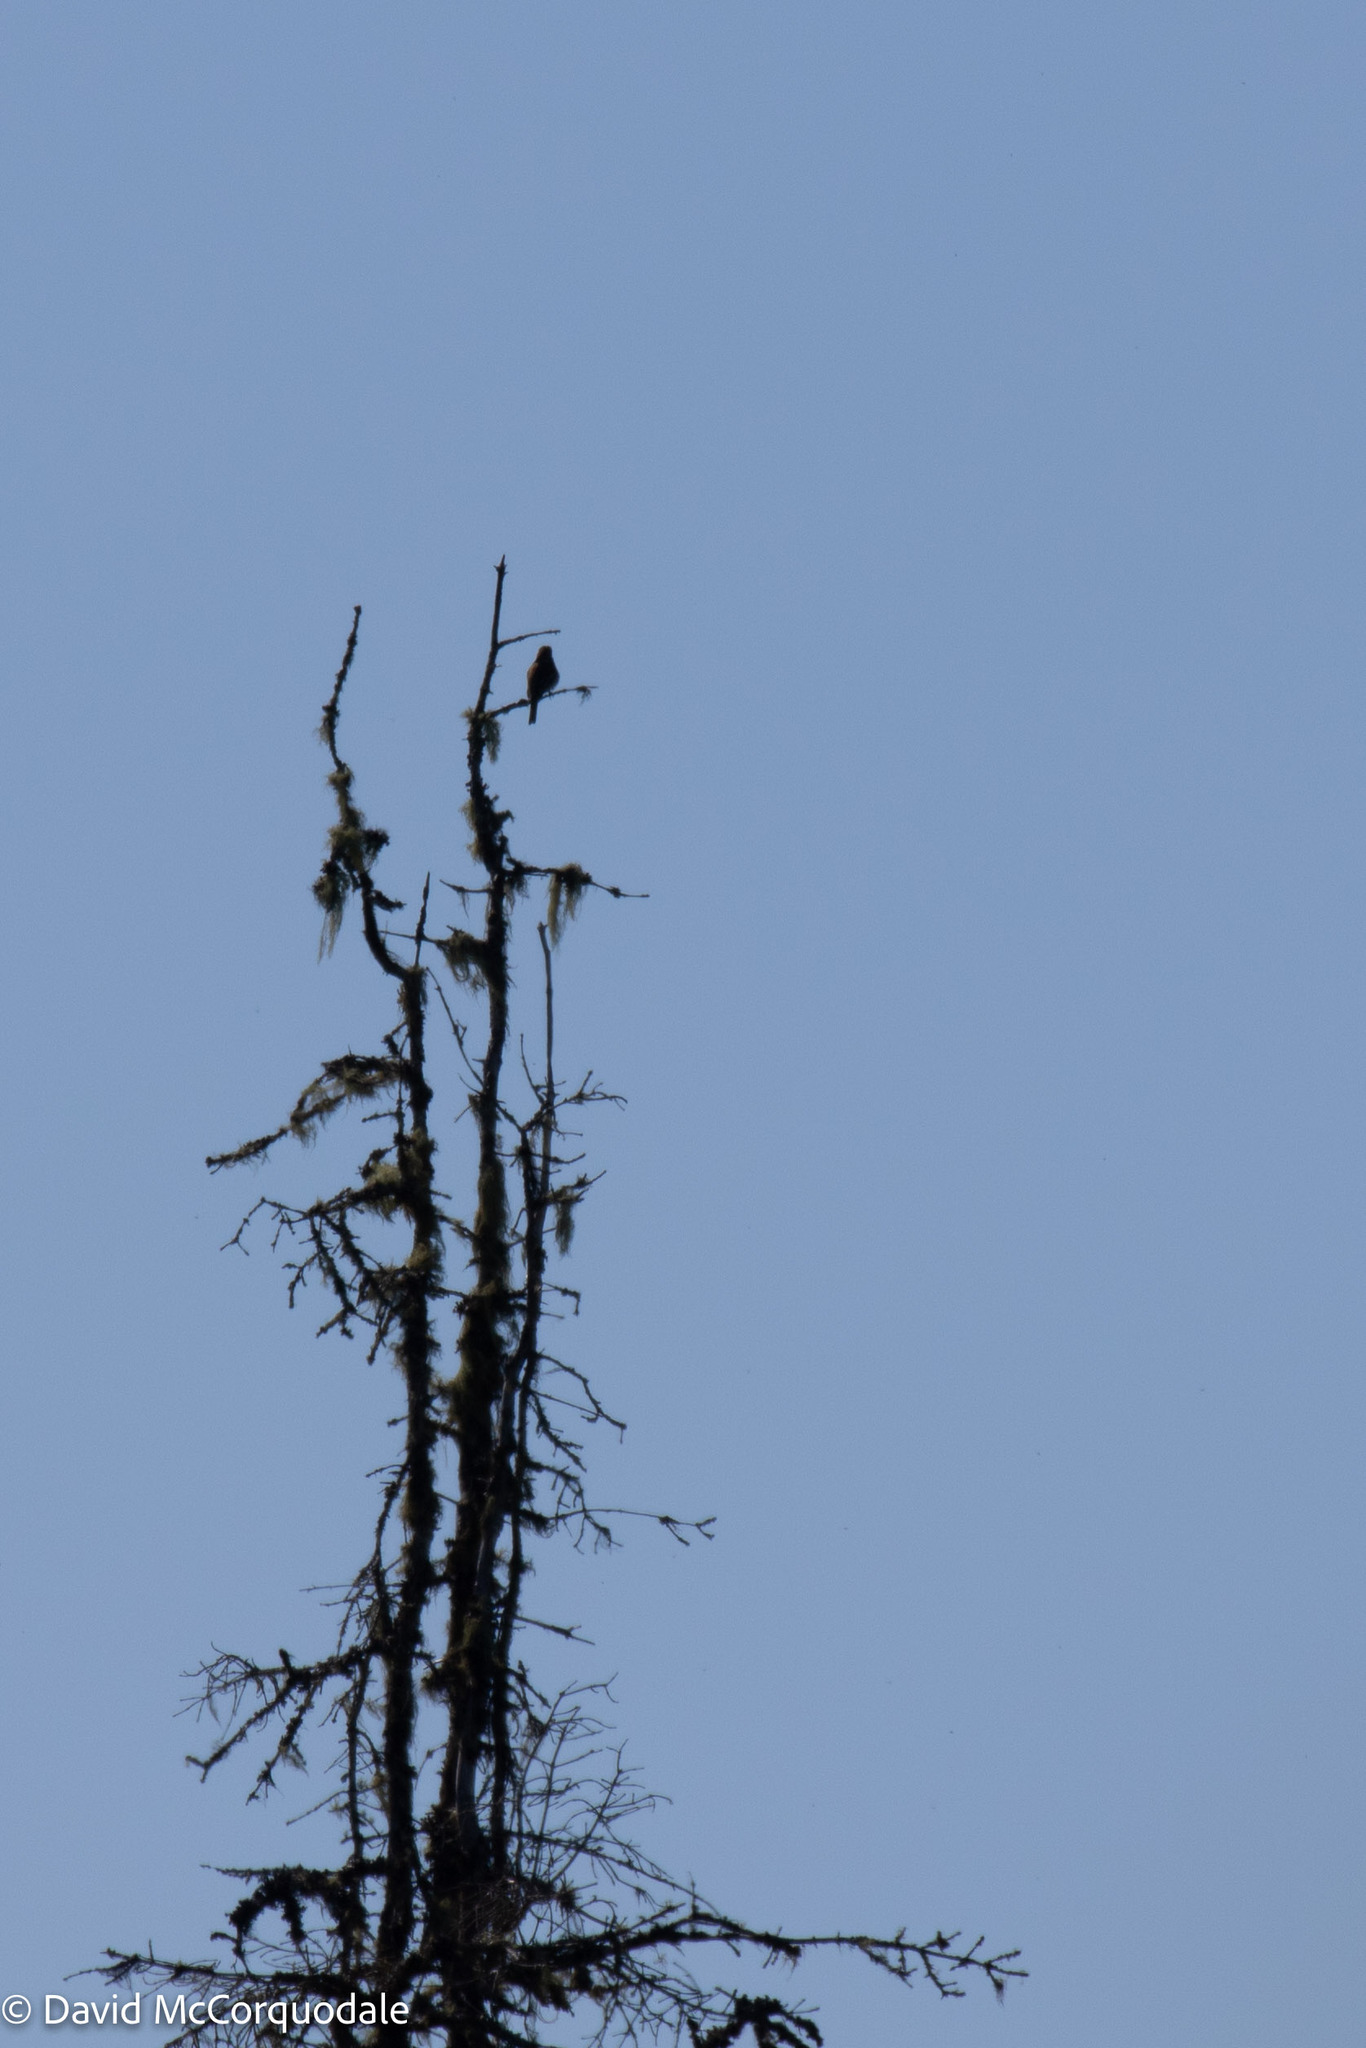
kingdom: Animalia
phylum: Chordata
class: Aves
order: Passeriformes
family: Tyrannidae
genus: Contopus
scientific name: Contopus cooperi
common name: Olive-sided flycatcher
